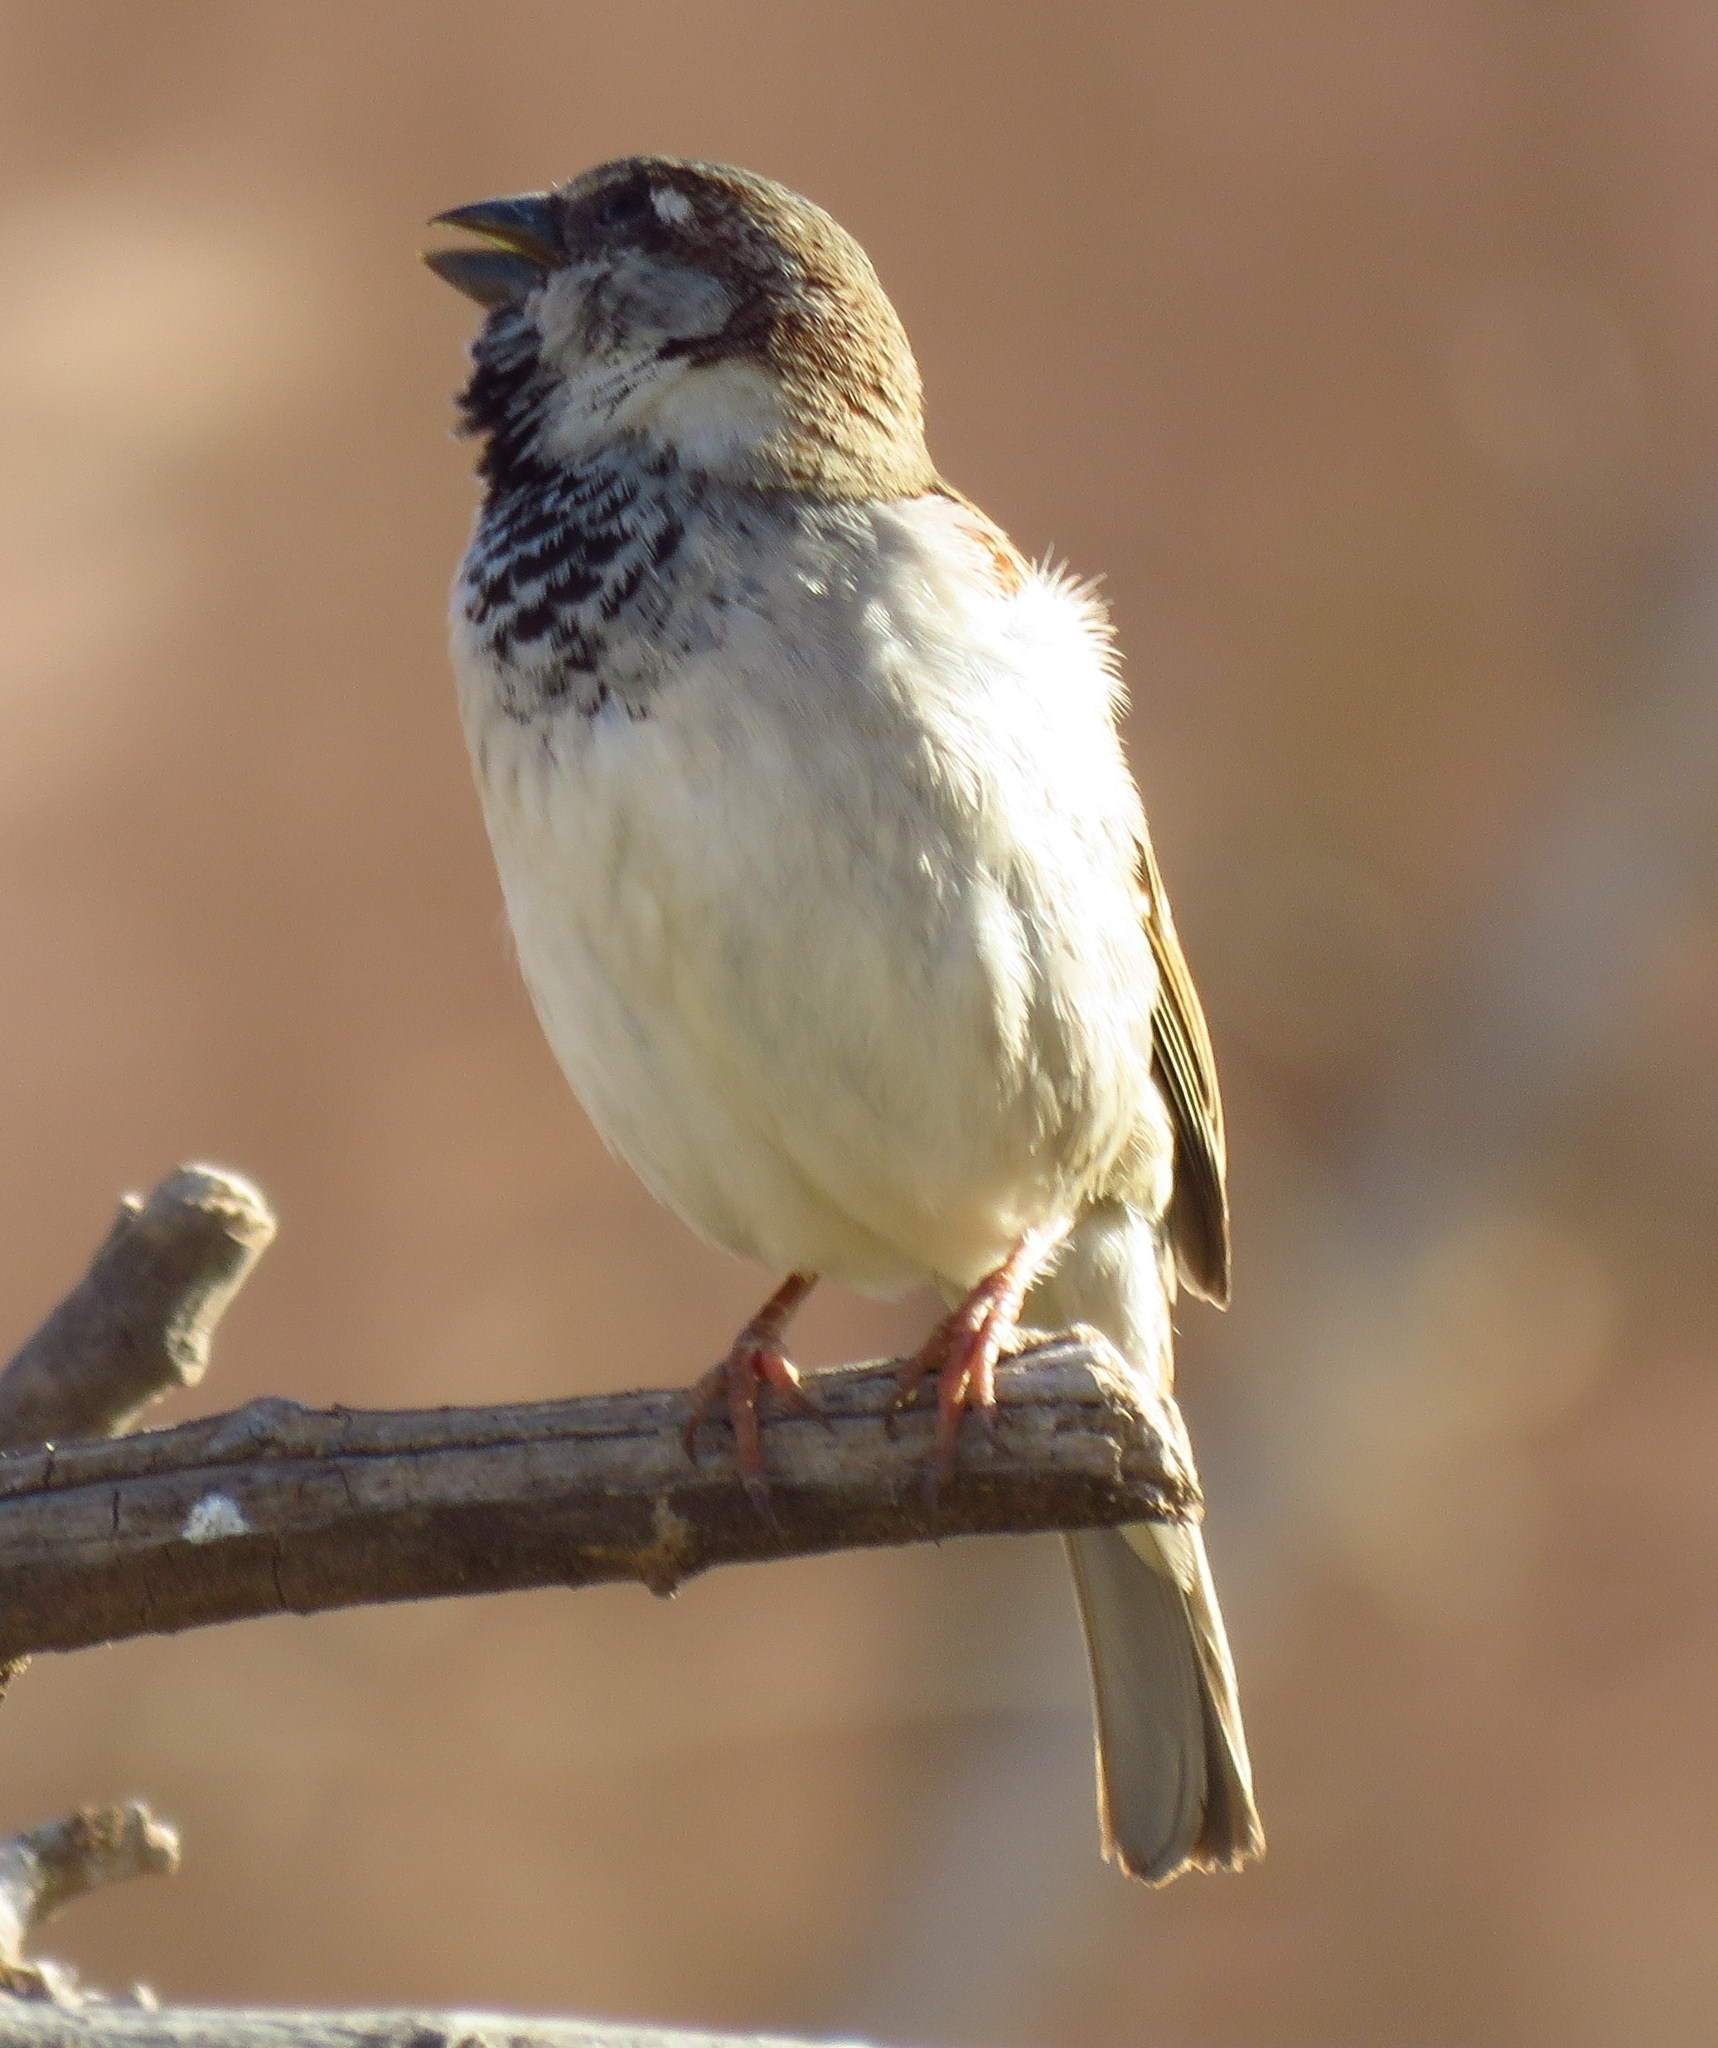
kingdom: Animalia
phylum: Chordata
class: Aves
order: Passeriformes
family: Passeridae
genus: Passer
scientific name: Passer domesticus
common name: House sparrow
